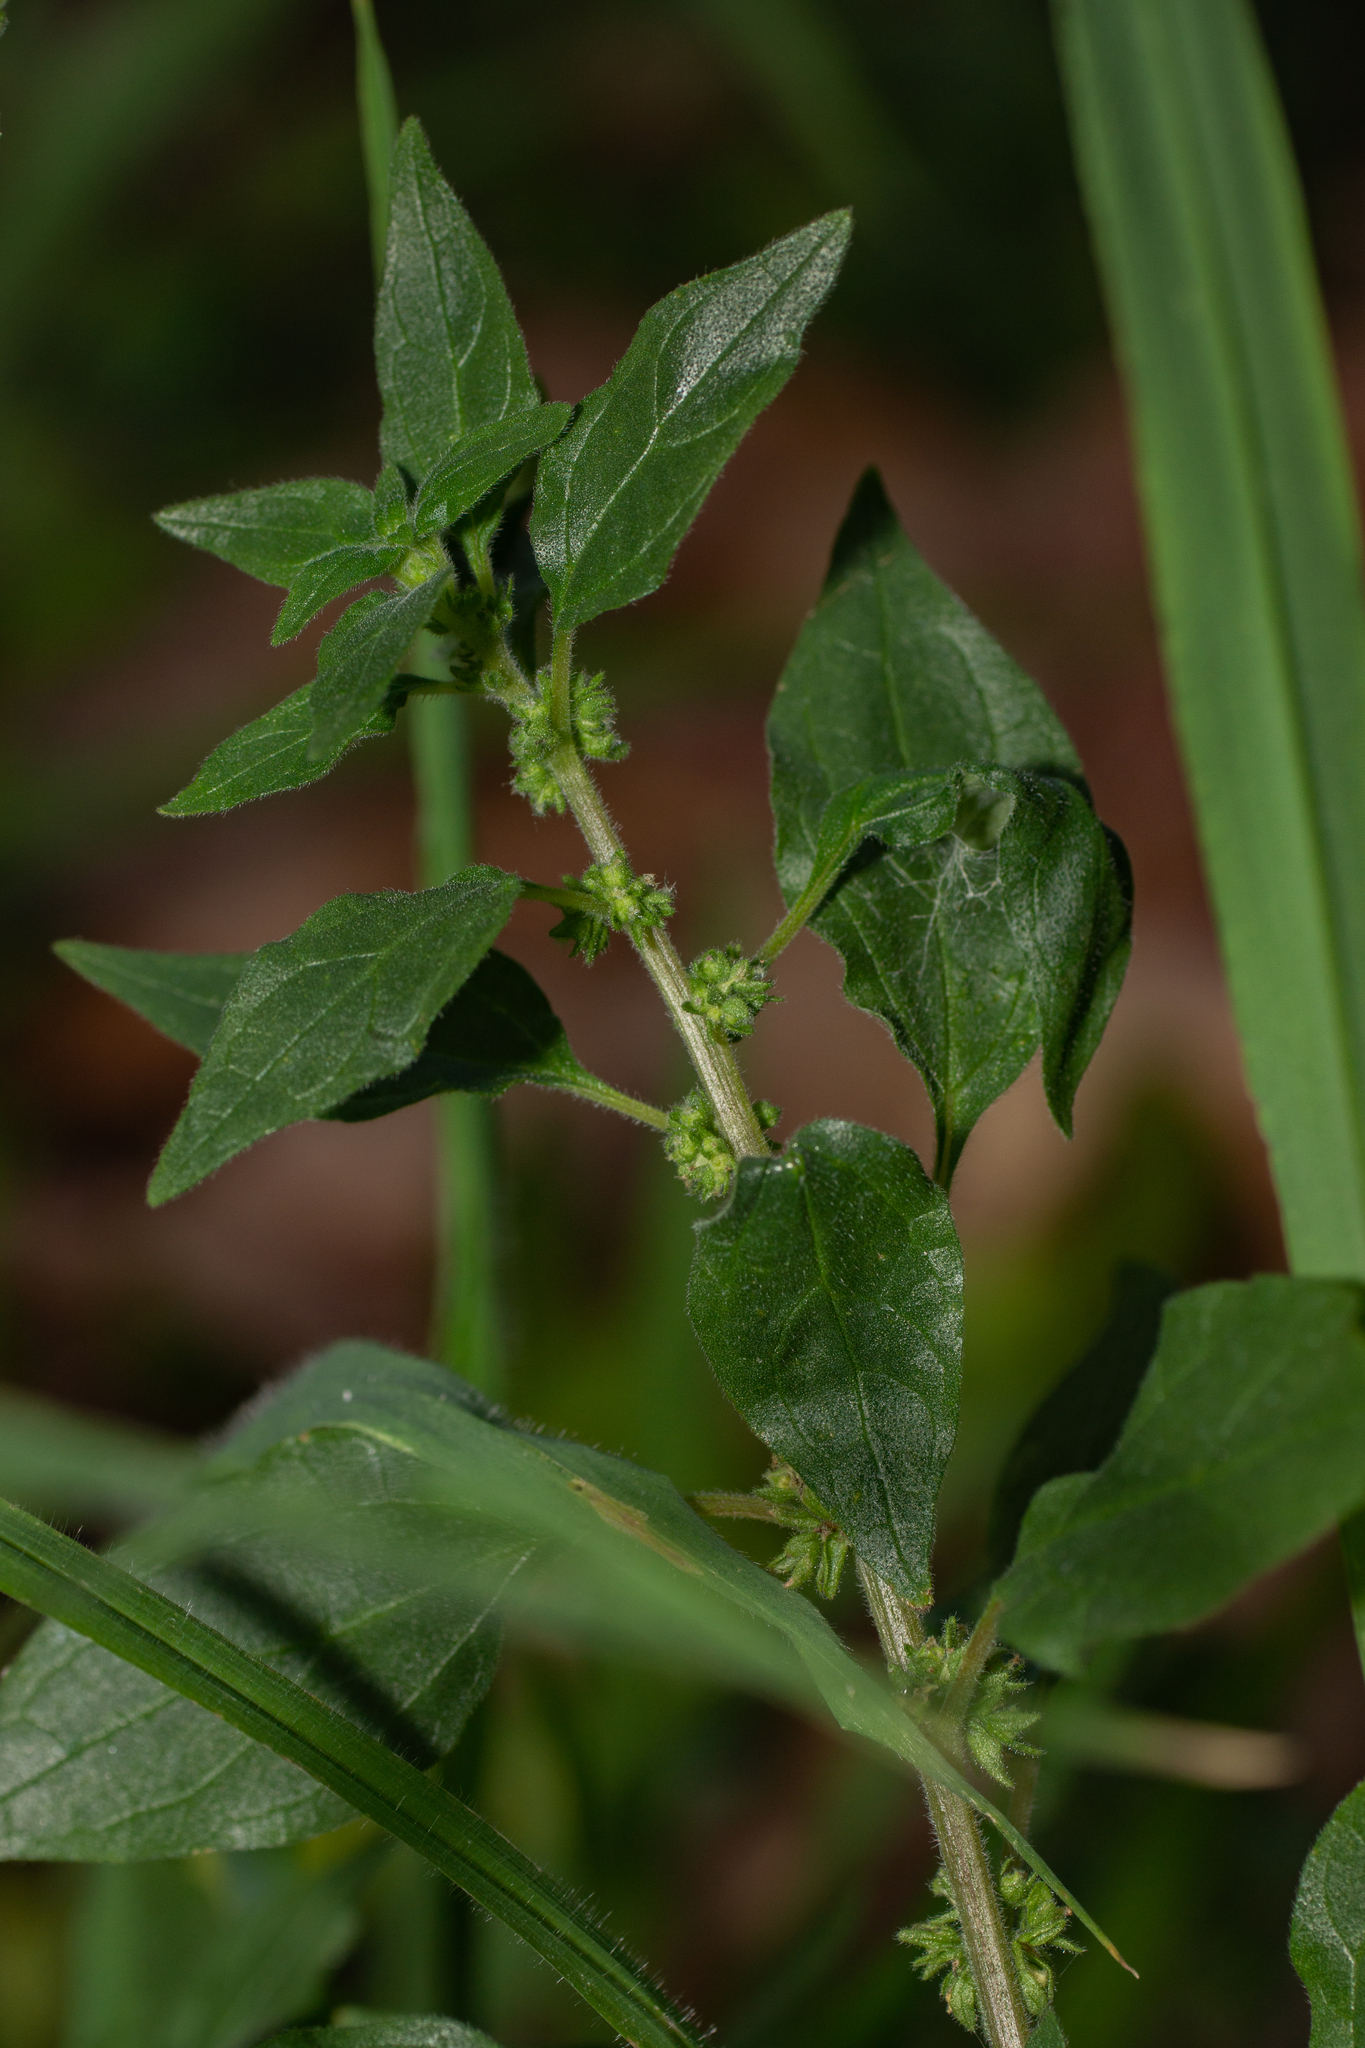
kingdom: Plantae
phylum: Tracheophyta
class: Magnoliopsida
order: Rosales
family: Urticaceae
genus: Parietaria
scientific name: Parietaria judaica
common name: Pellitory-of-the-wall
